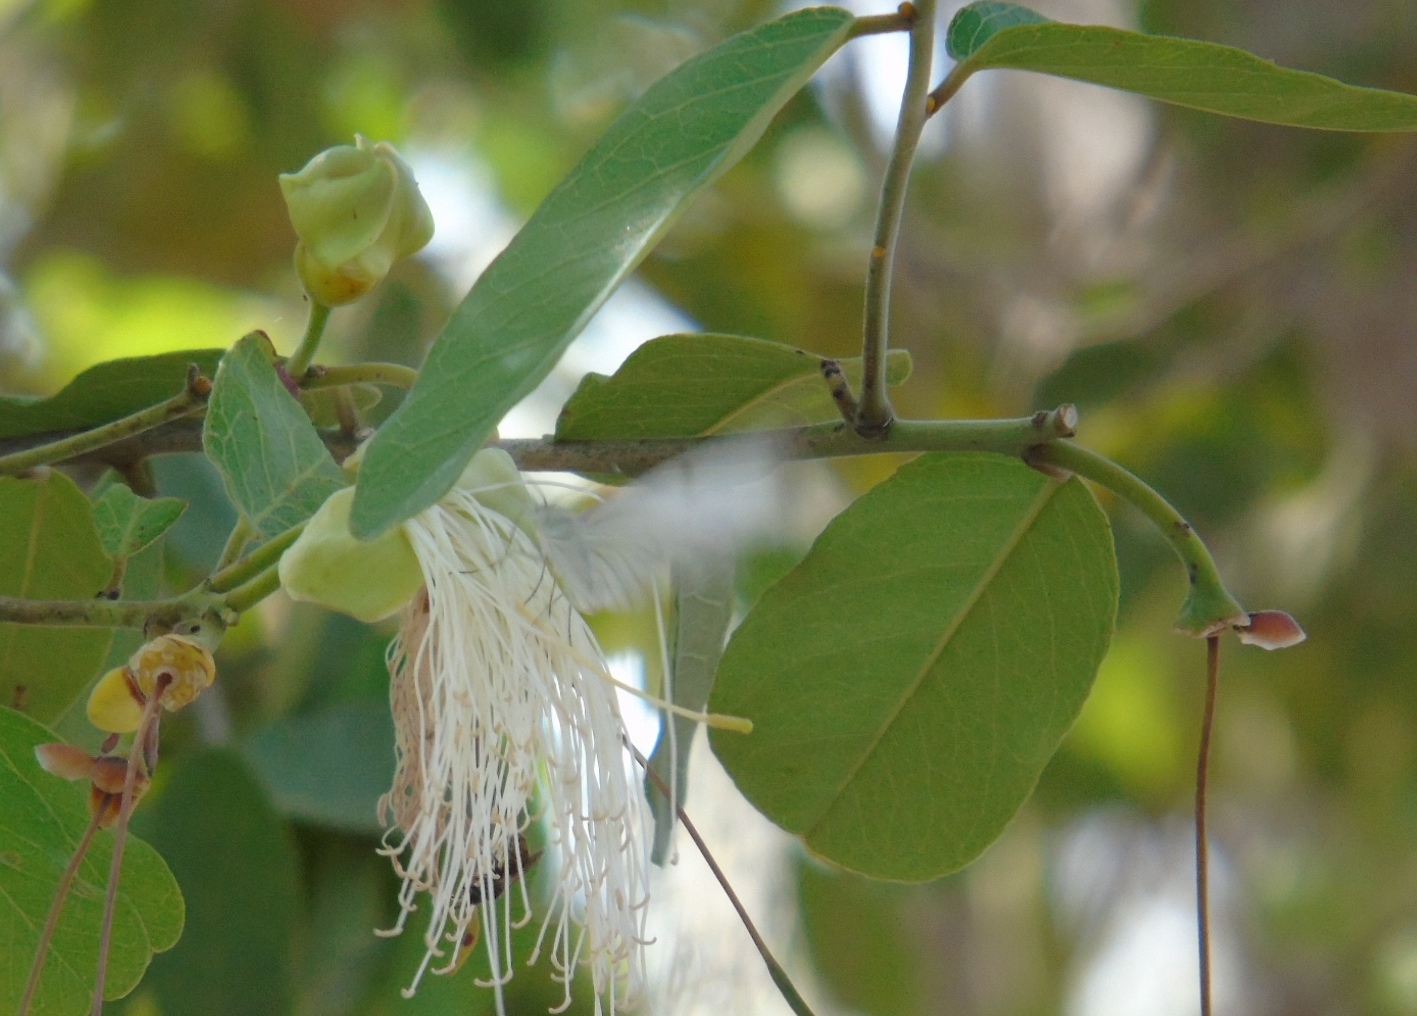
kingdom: Plantae
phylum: Tracheophyta
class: Magnoliopsida
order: Brassicales
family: Capparaceae
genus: Cynophalla
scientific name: Cynophalla flexuosa
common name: Capertree
